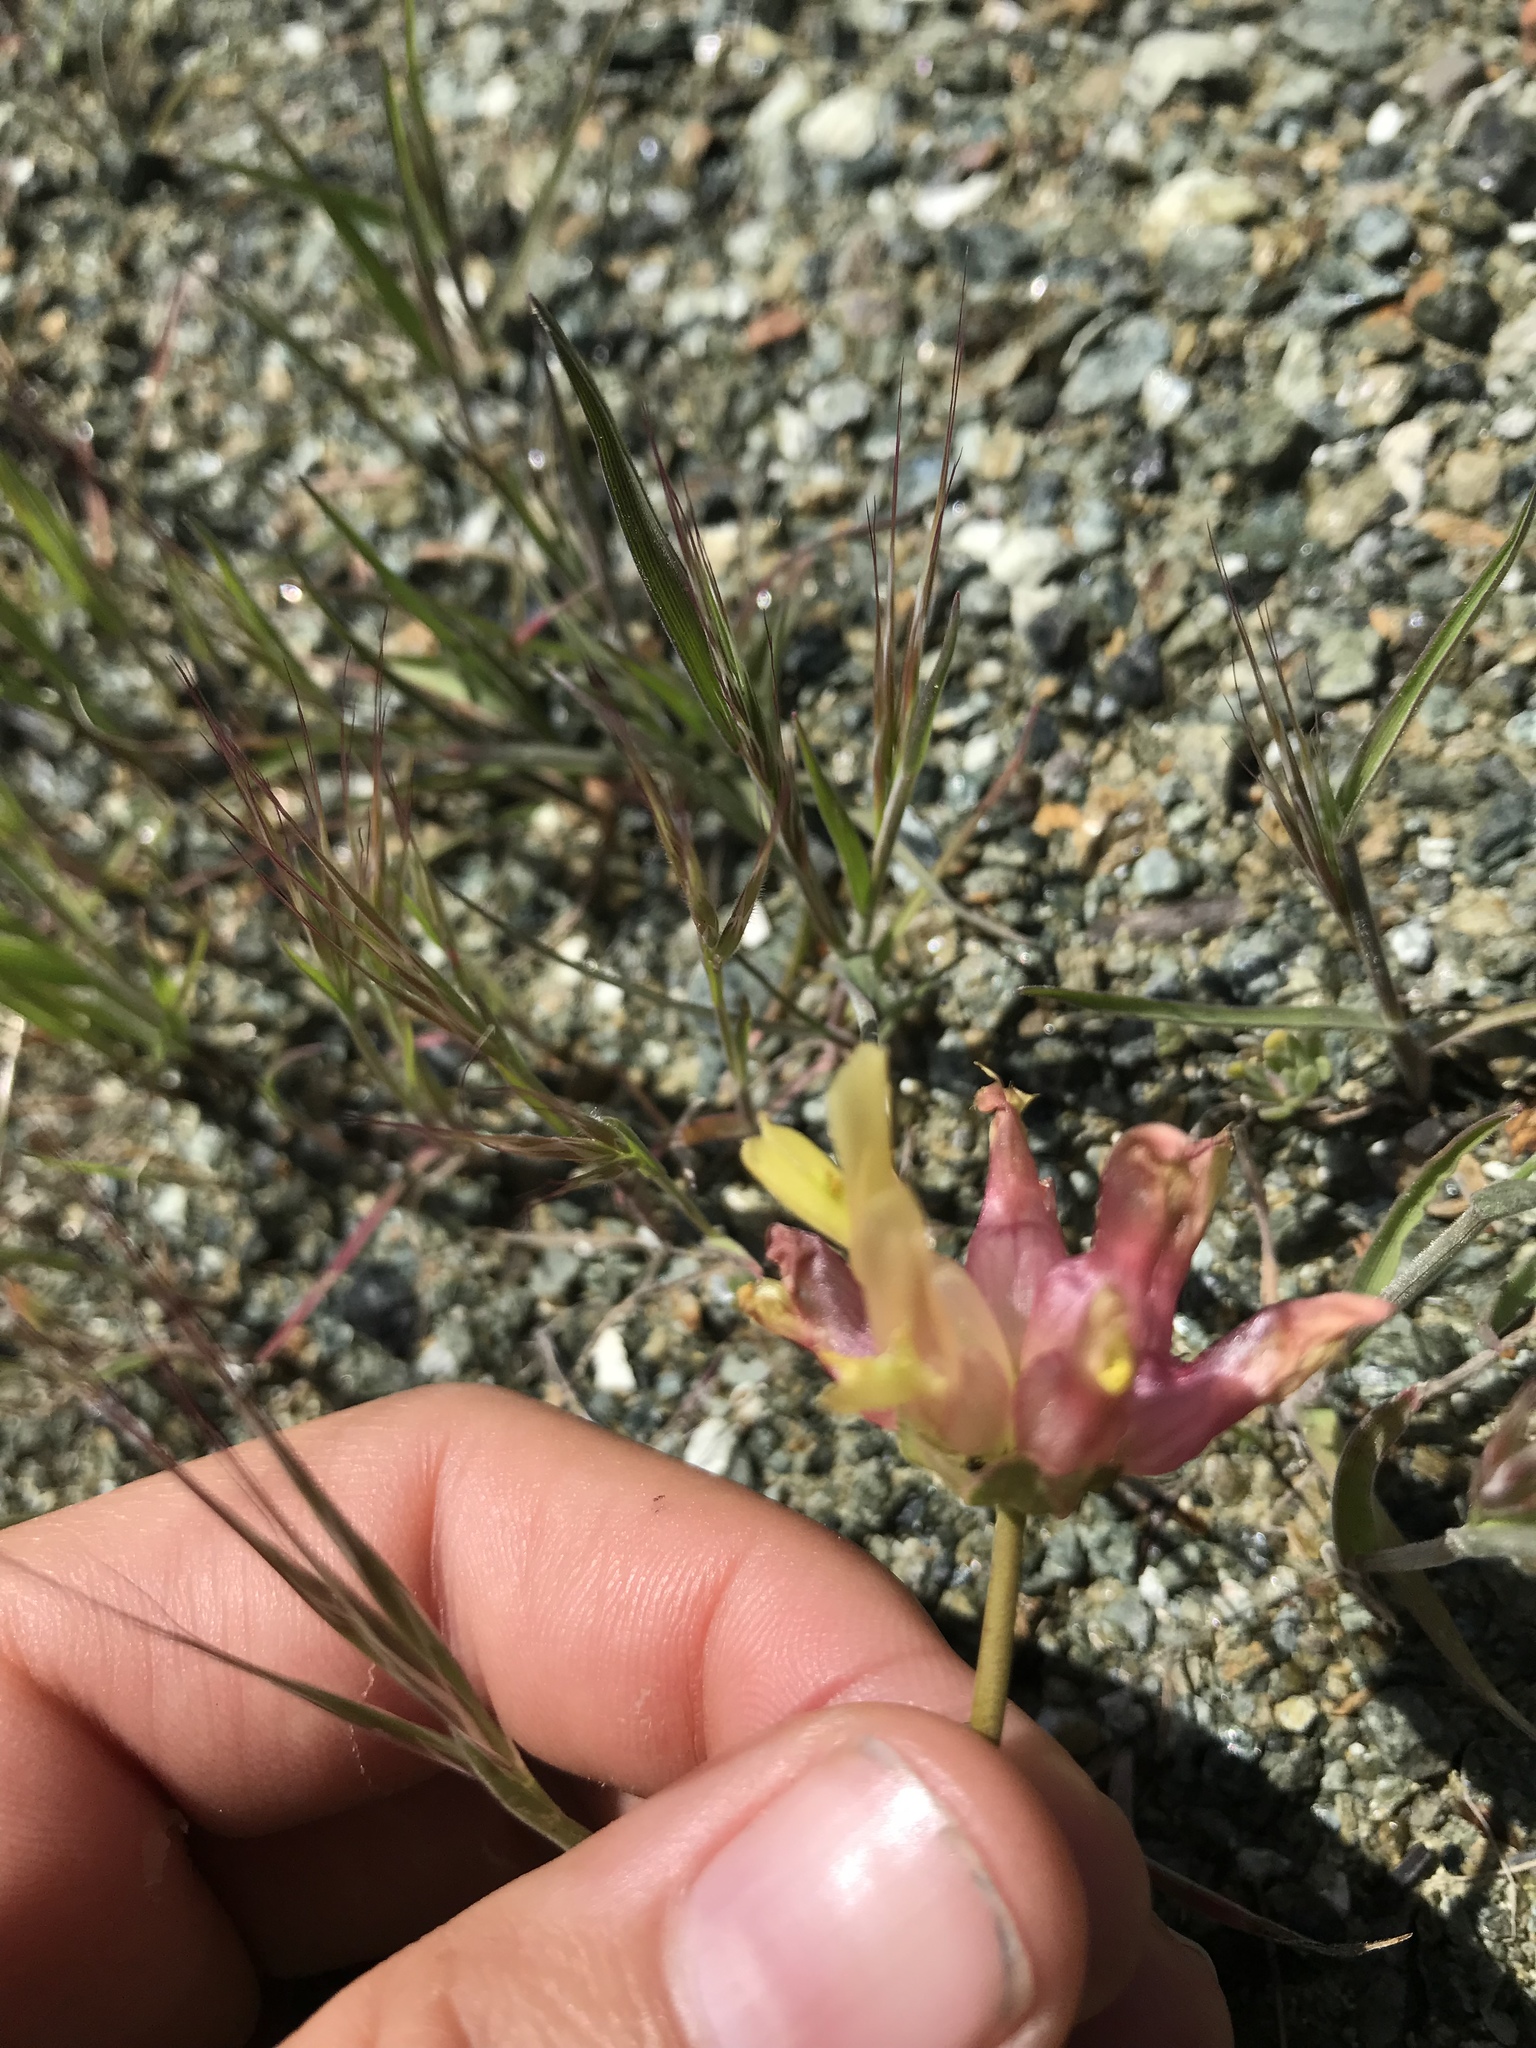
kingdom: Plantae
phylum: Tracheophyta
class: Magnoliopsida
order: Fabales
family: Fabaceae
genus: Trifolium
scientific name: Trifolium fucatum
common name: Puff clover
